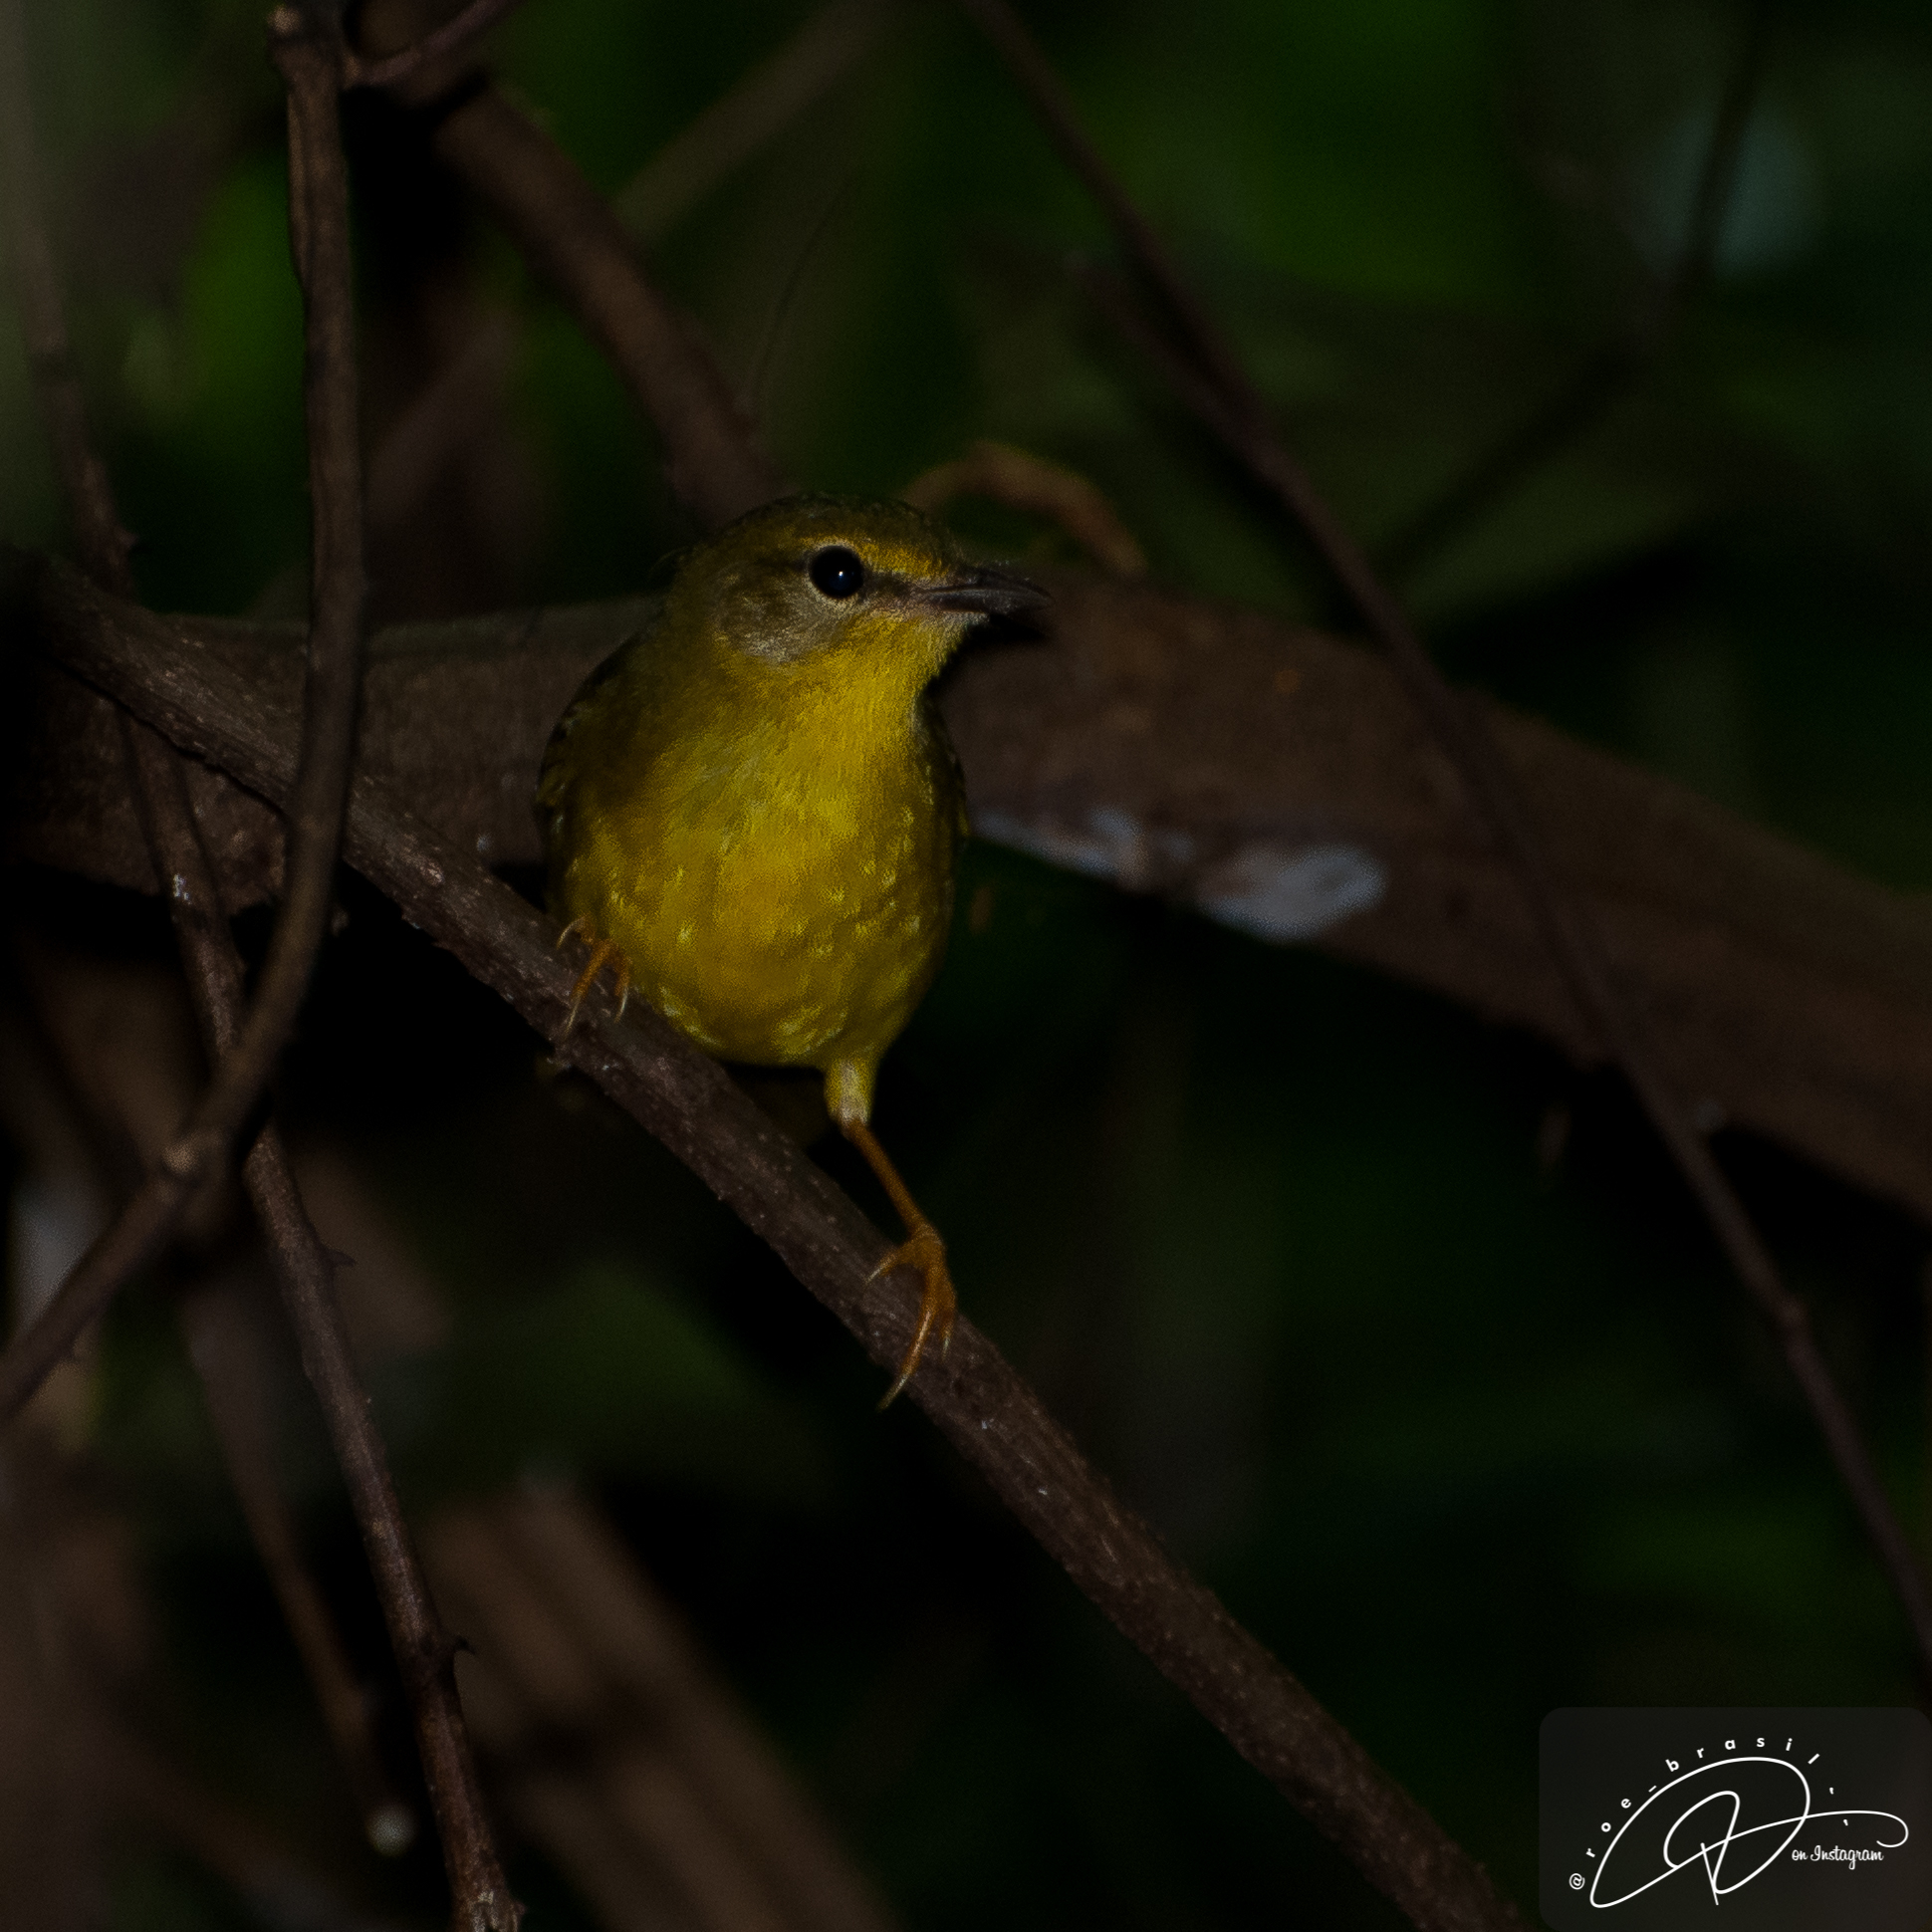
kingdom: Animalia
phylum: Chordata
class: Aves
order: Passeriformes
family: Parulidae
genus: Myiothlypis
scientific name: Myiothlypis flaveola
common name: Flavescent warbler
